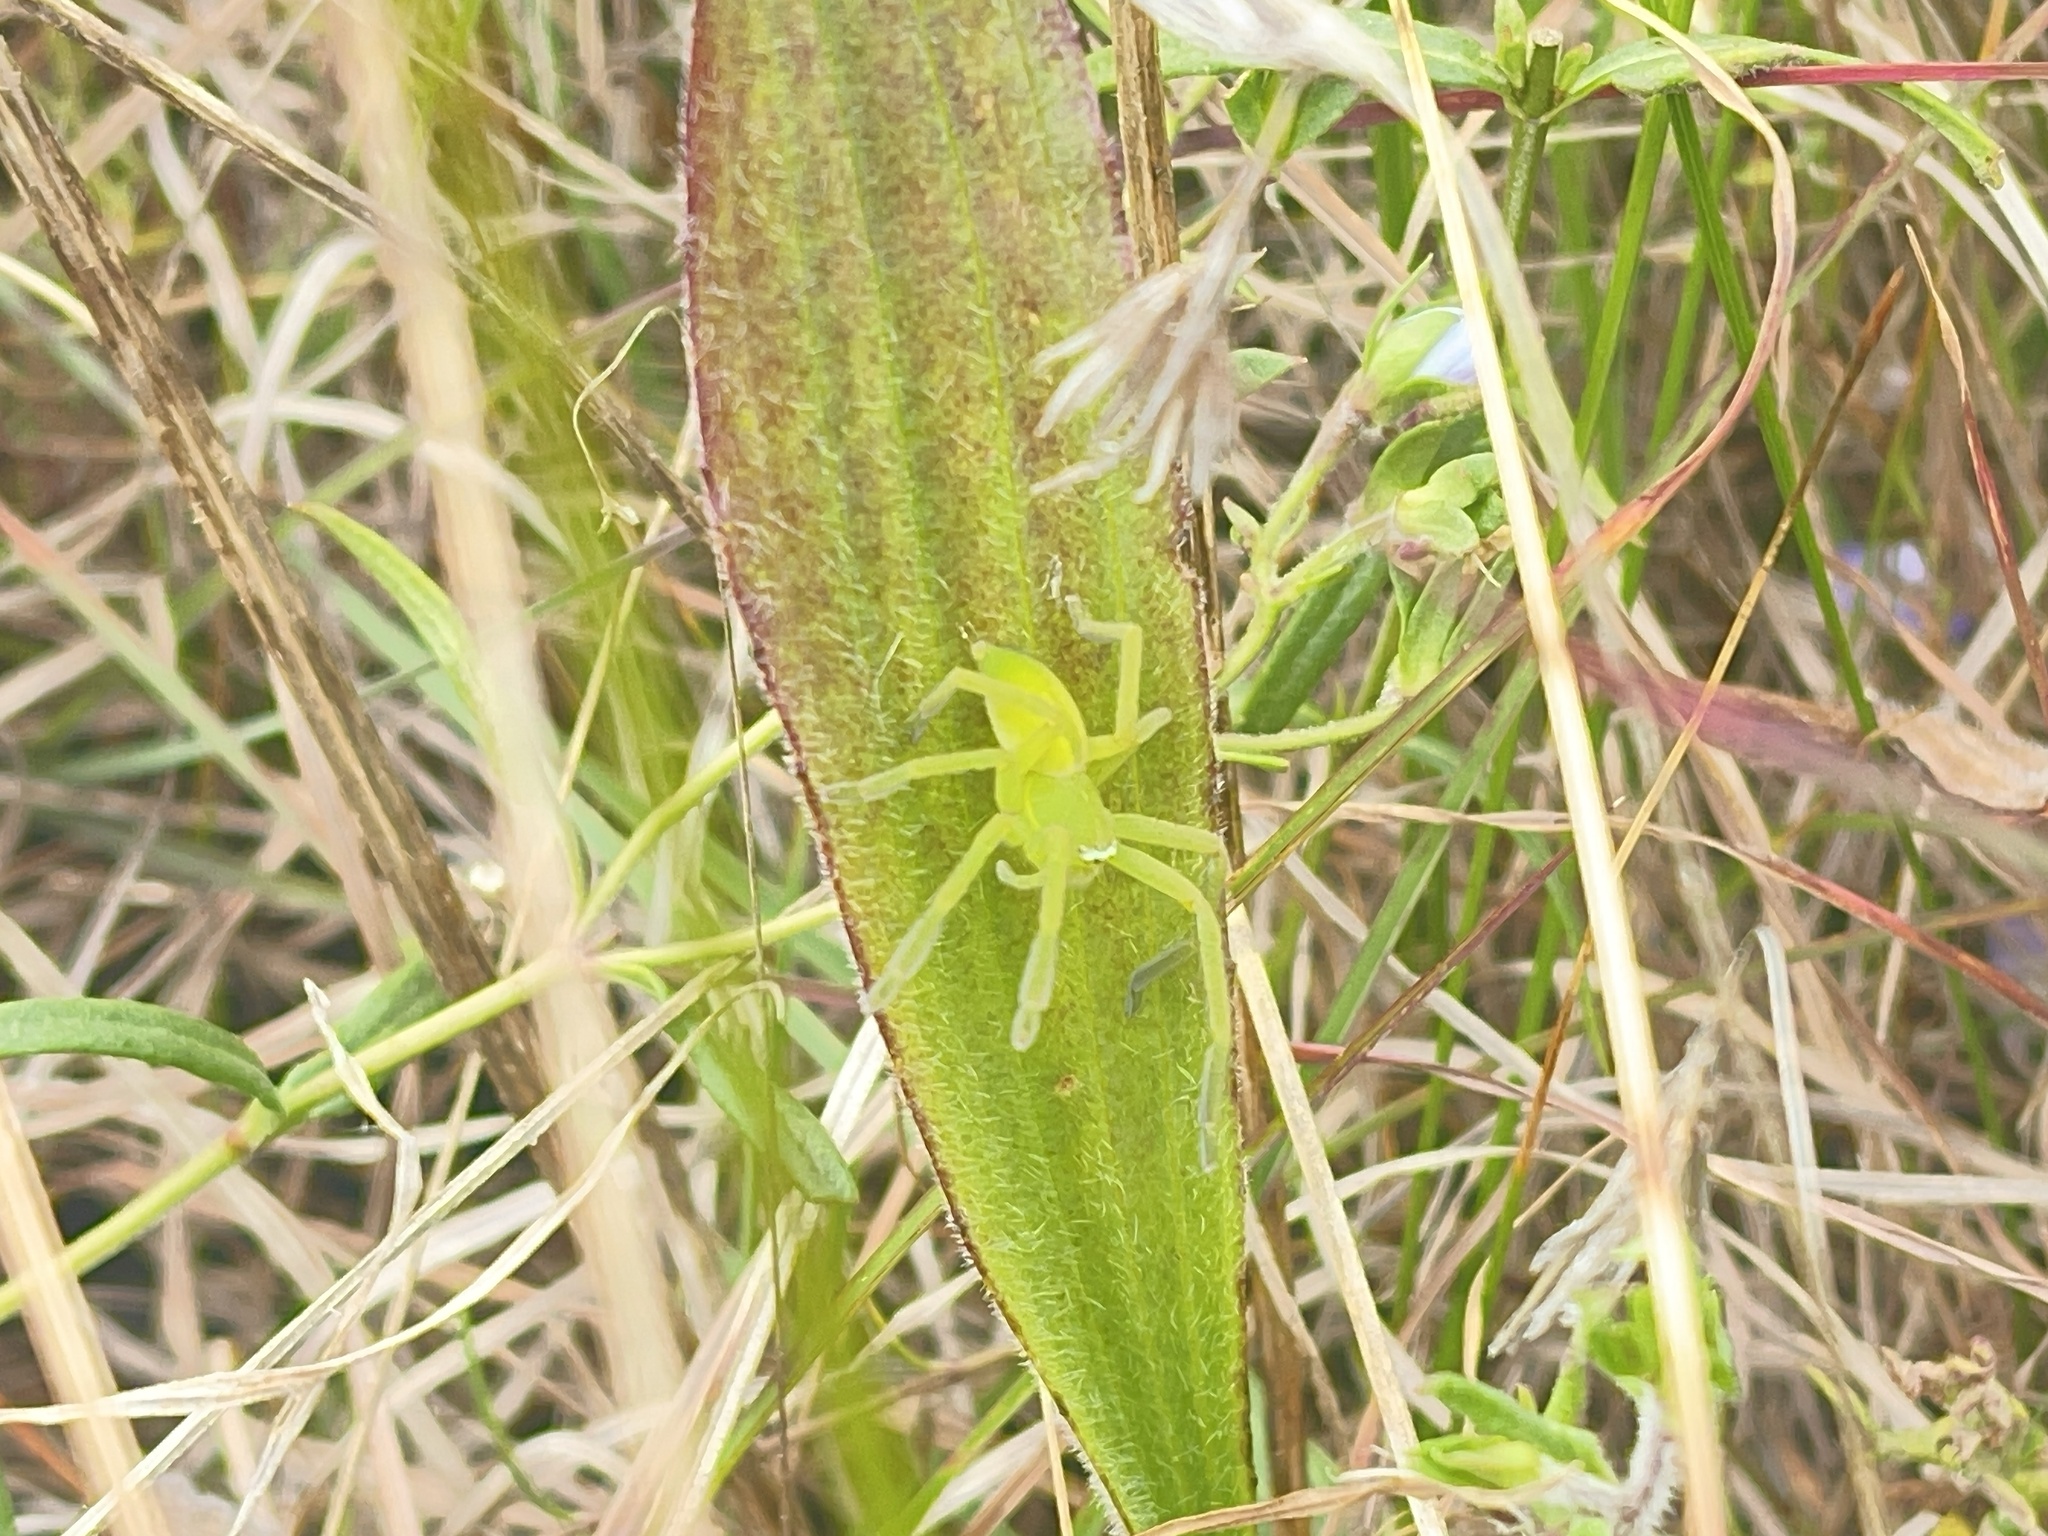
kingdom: Animalia
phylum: Arthropoda
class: Arachnida
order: Araneae
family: Sparassidae
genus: Neosparassus
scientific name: Neosparassus patellatus
